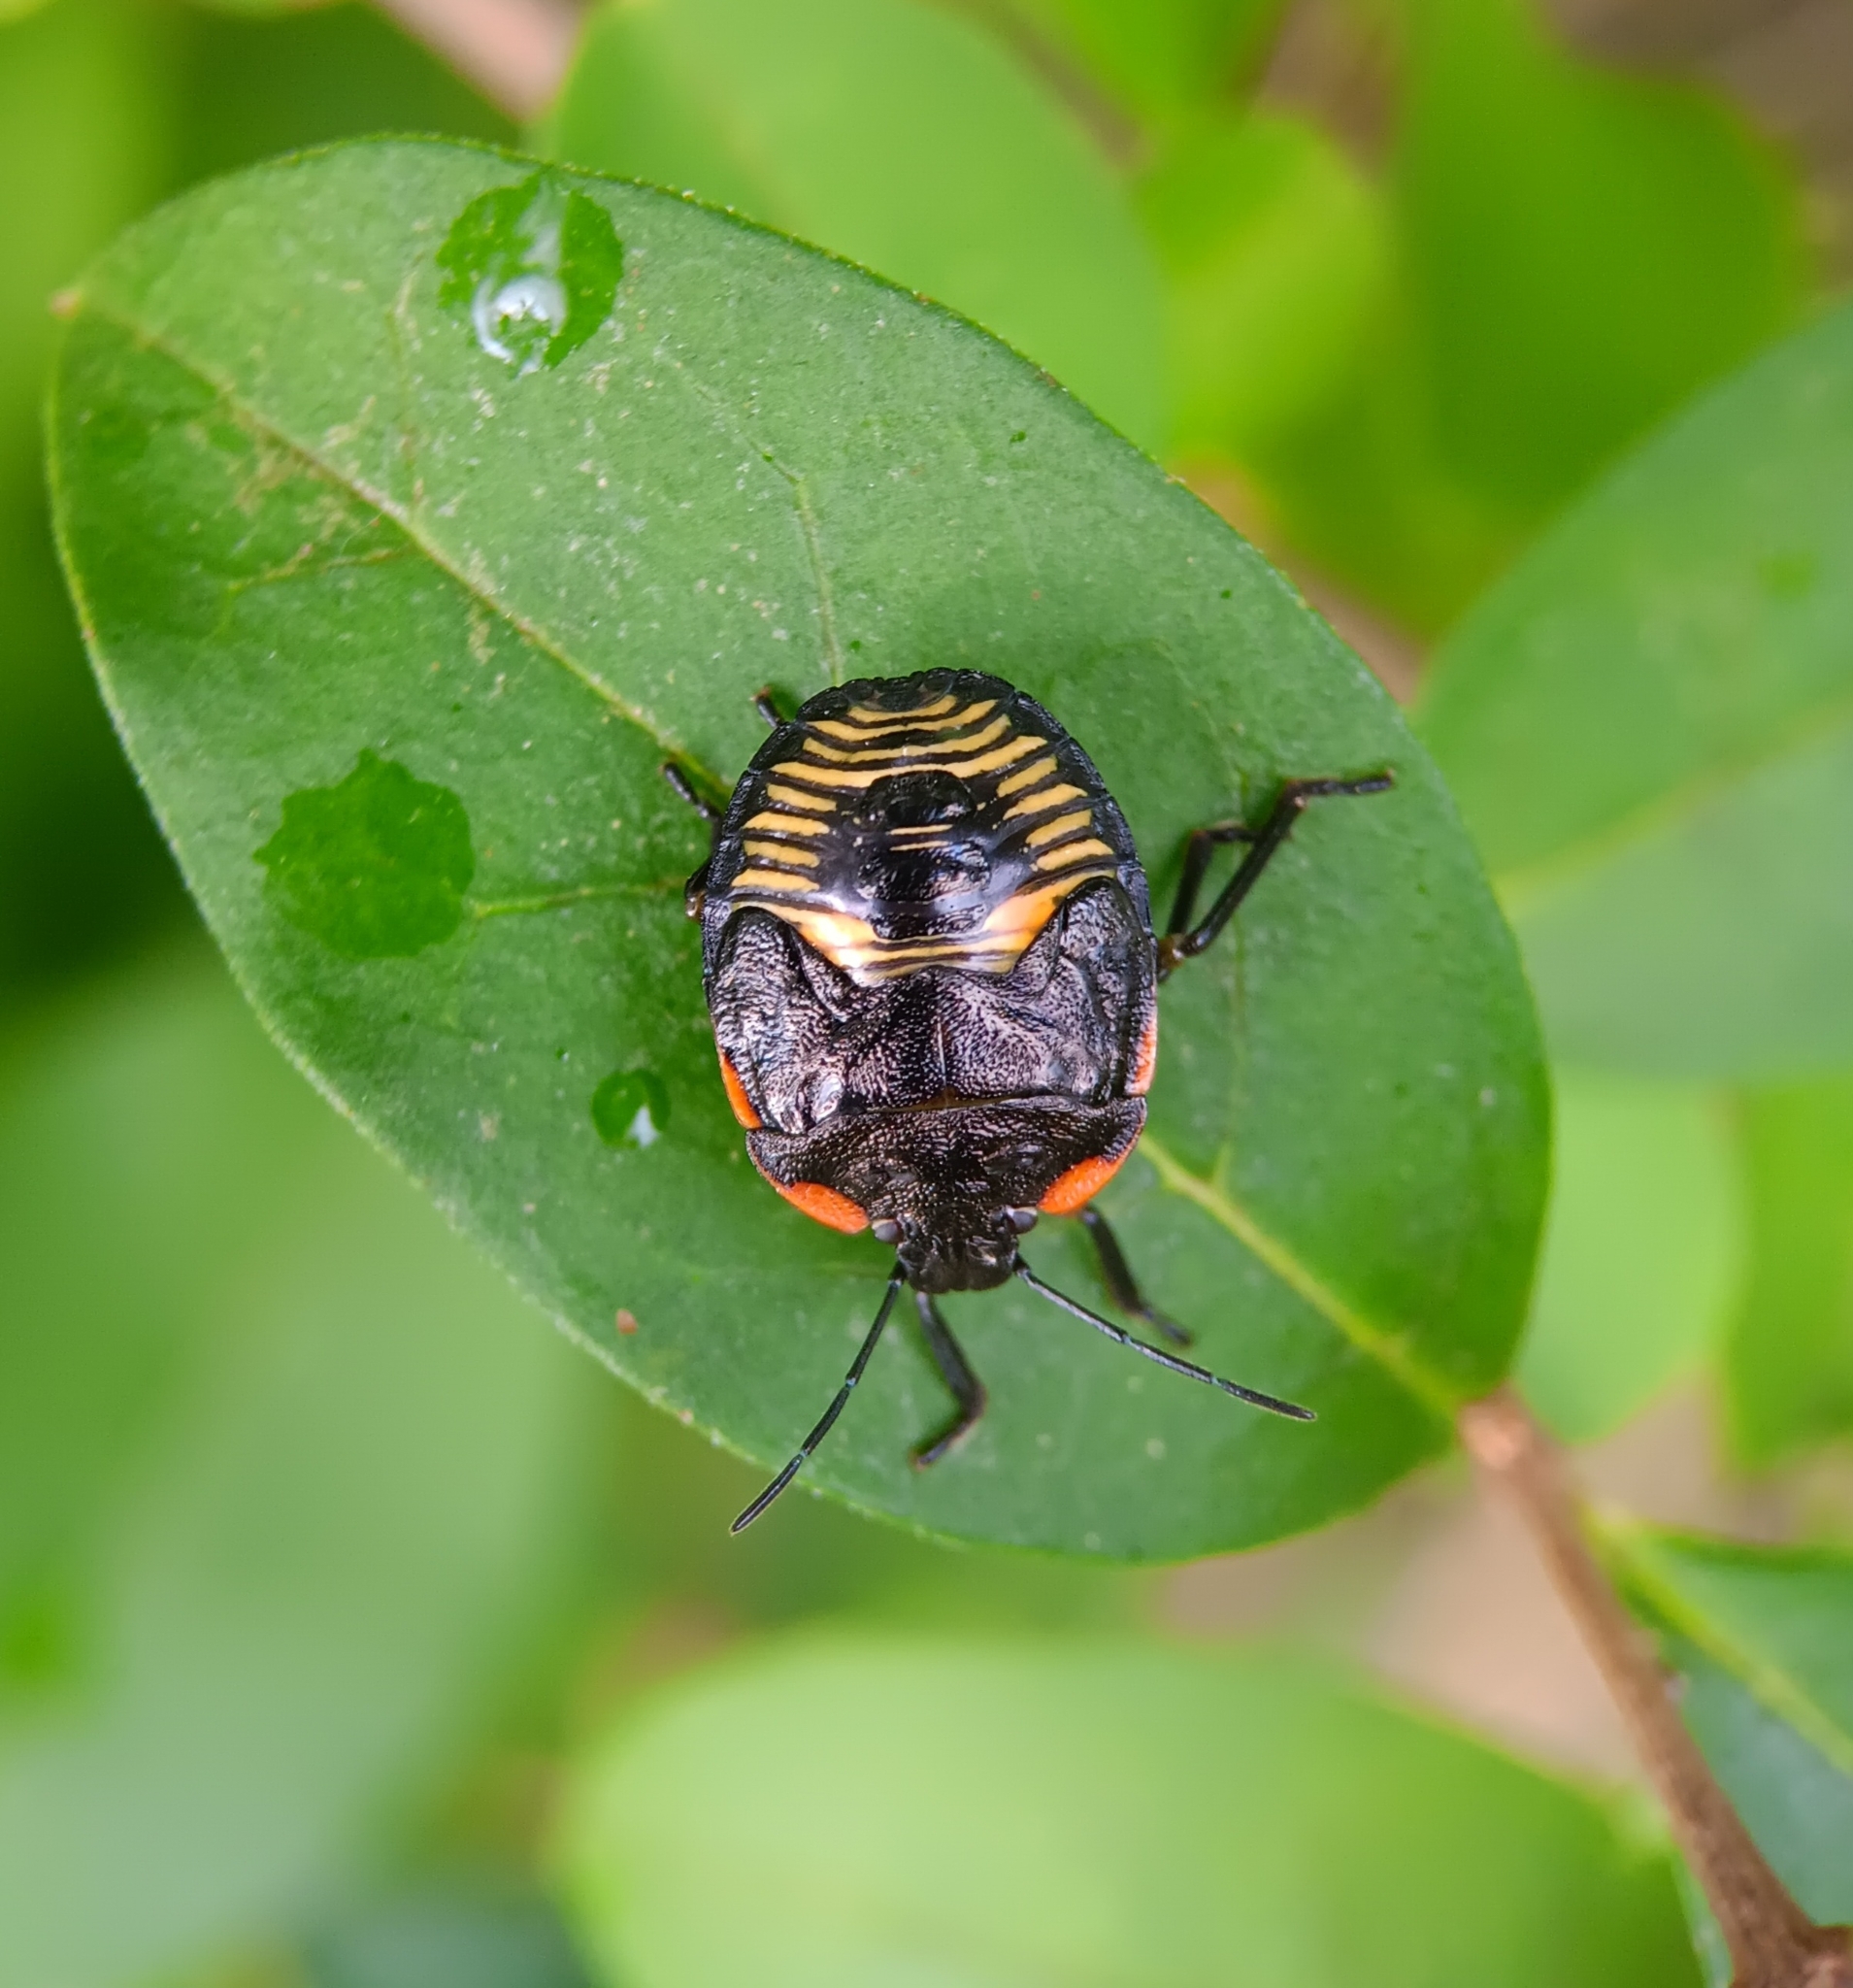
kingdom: Animalia
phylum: Arthropoda
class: Insecta
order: Hemiptera
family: Pentatomidae
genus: Chinavia
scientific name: Chinavia hilaris
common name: Green stink bug
